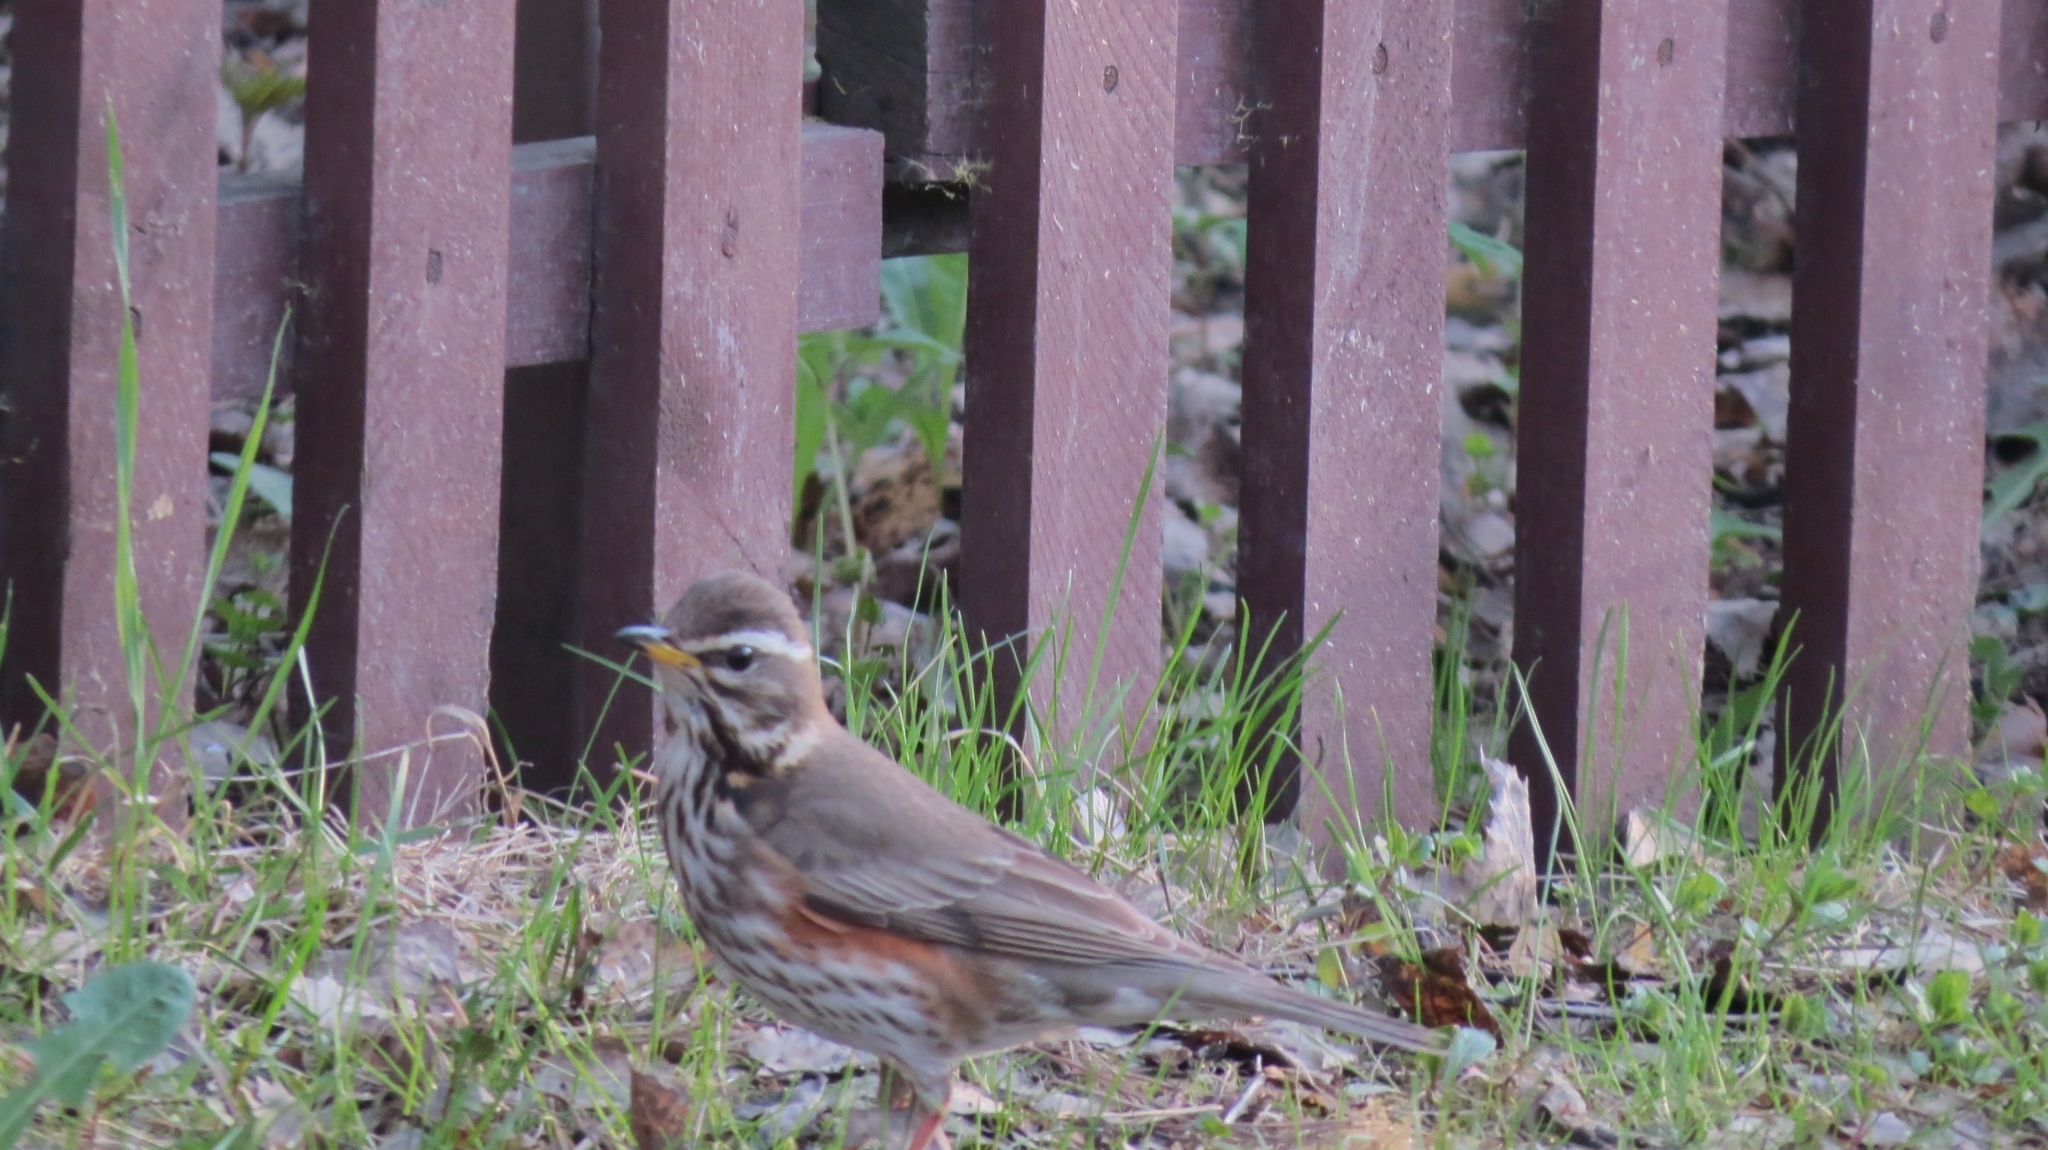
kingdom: Animalia
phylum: Chordata
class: Aves
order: Passeriformes
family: Turdidae
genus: Turdus
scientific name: Turdus iliacus
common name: Redwing
